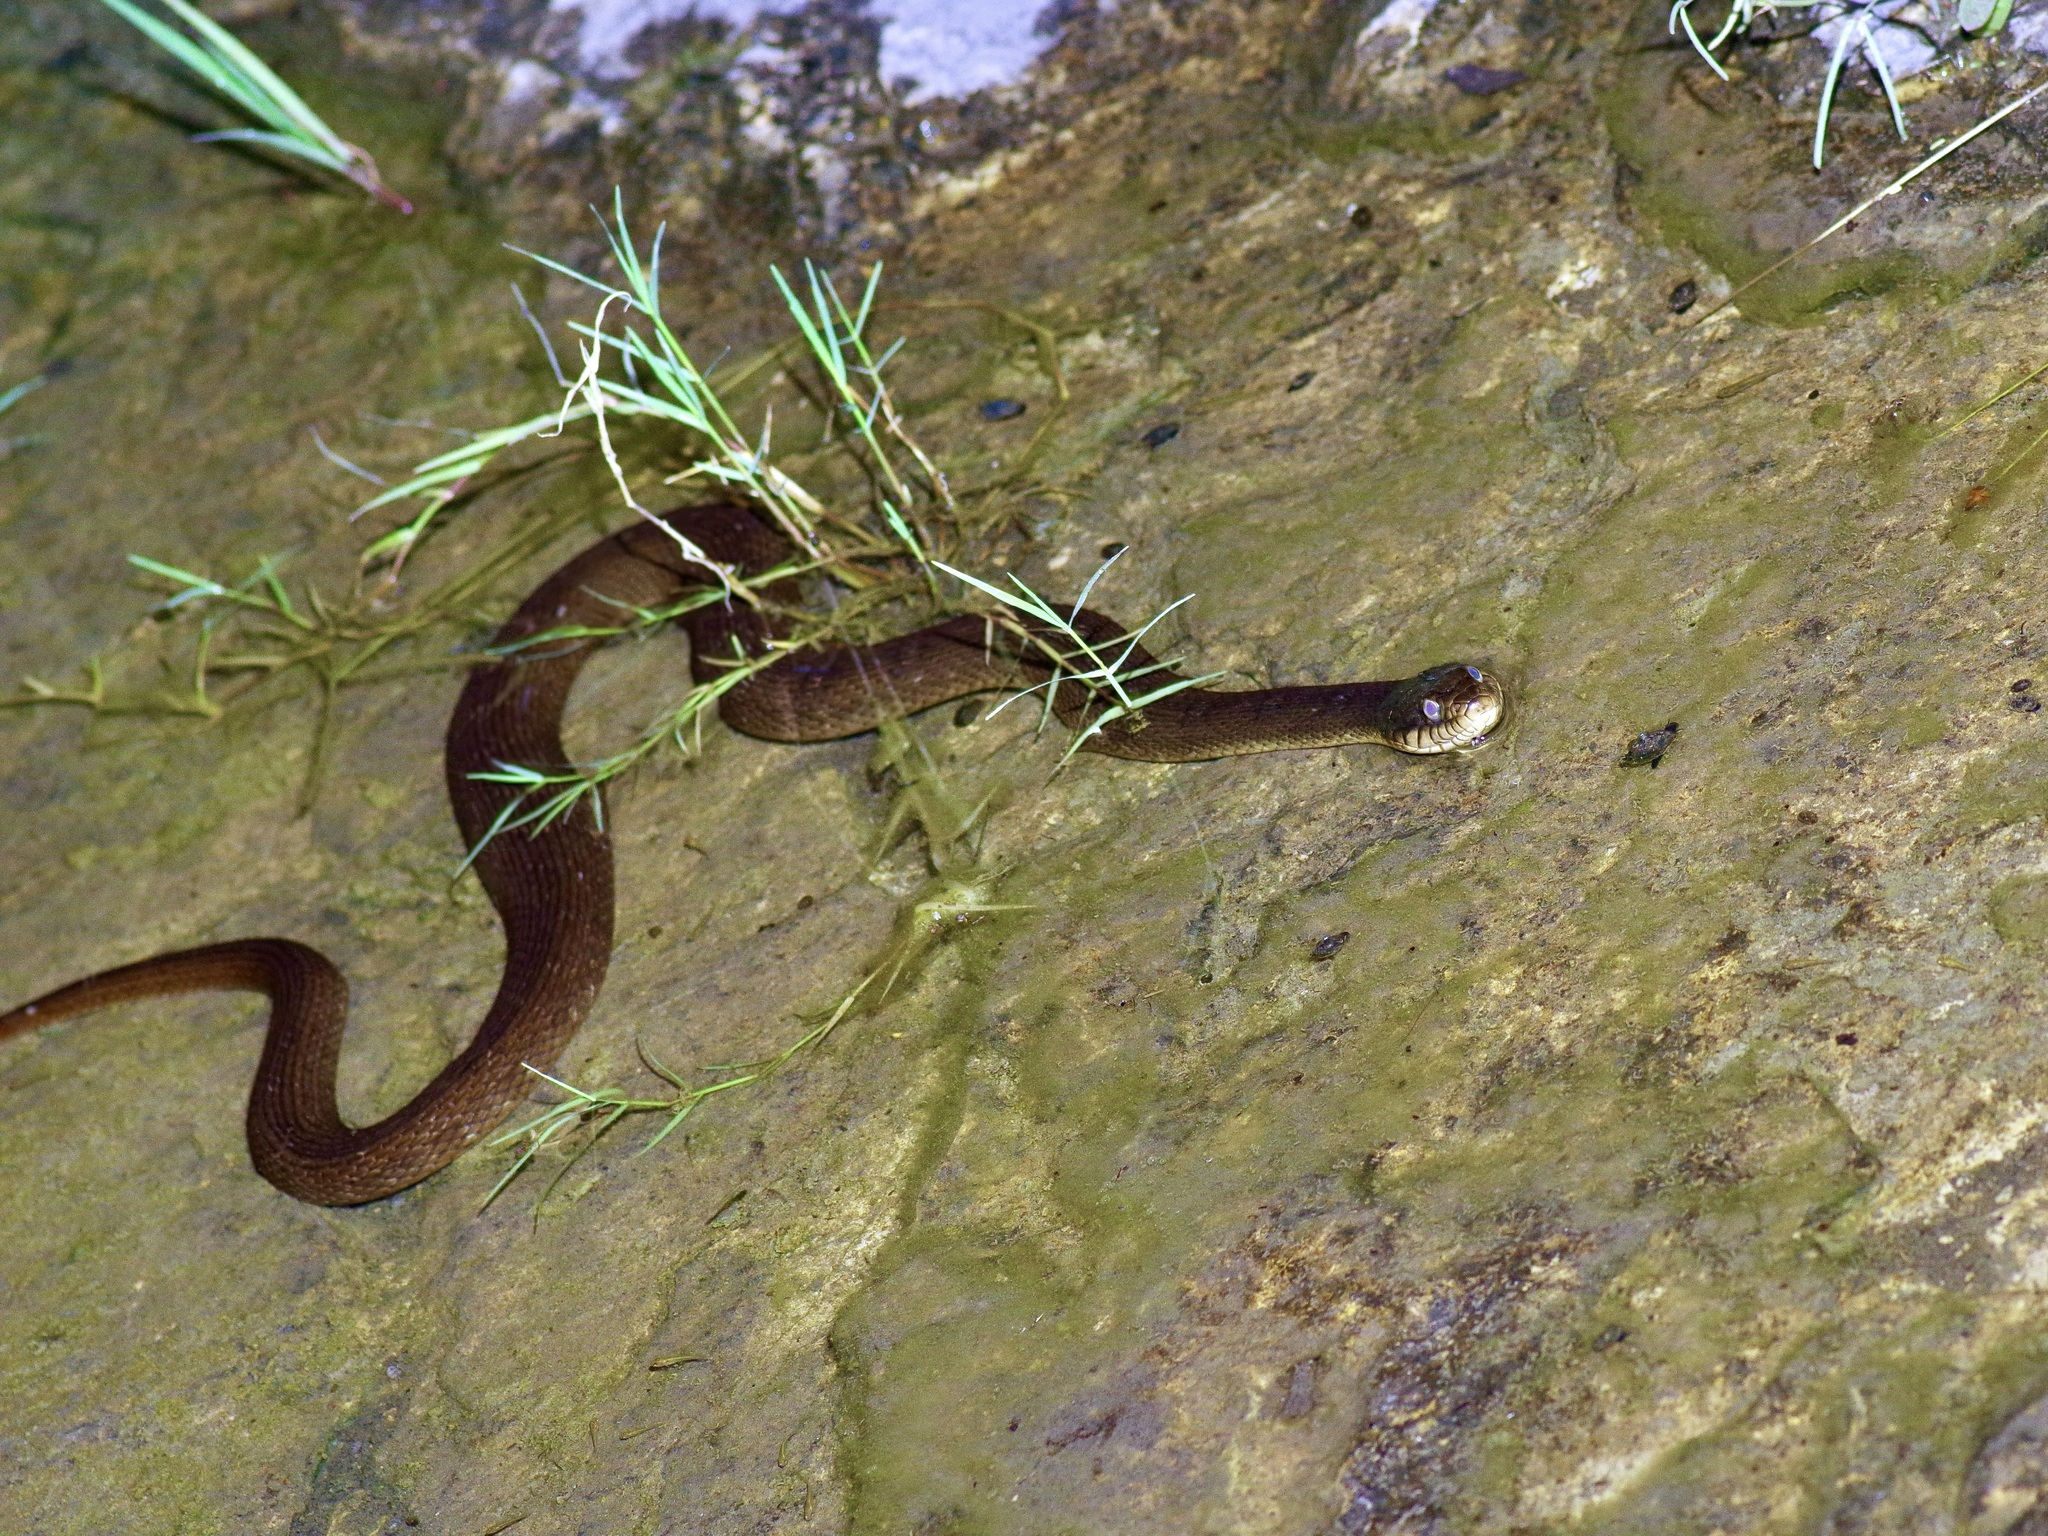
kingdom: Animalia
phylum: Chordata
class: Squamata
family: Colubridae
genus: Nerodia
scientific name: Nerodia erythrogaster
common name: Plainbelly water snake
